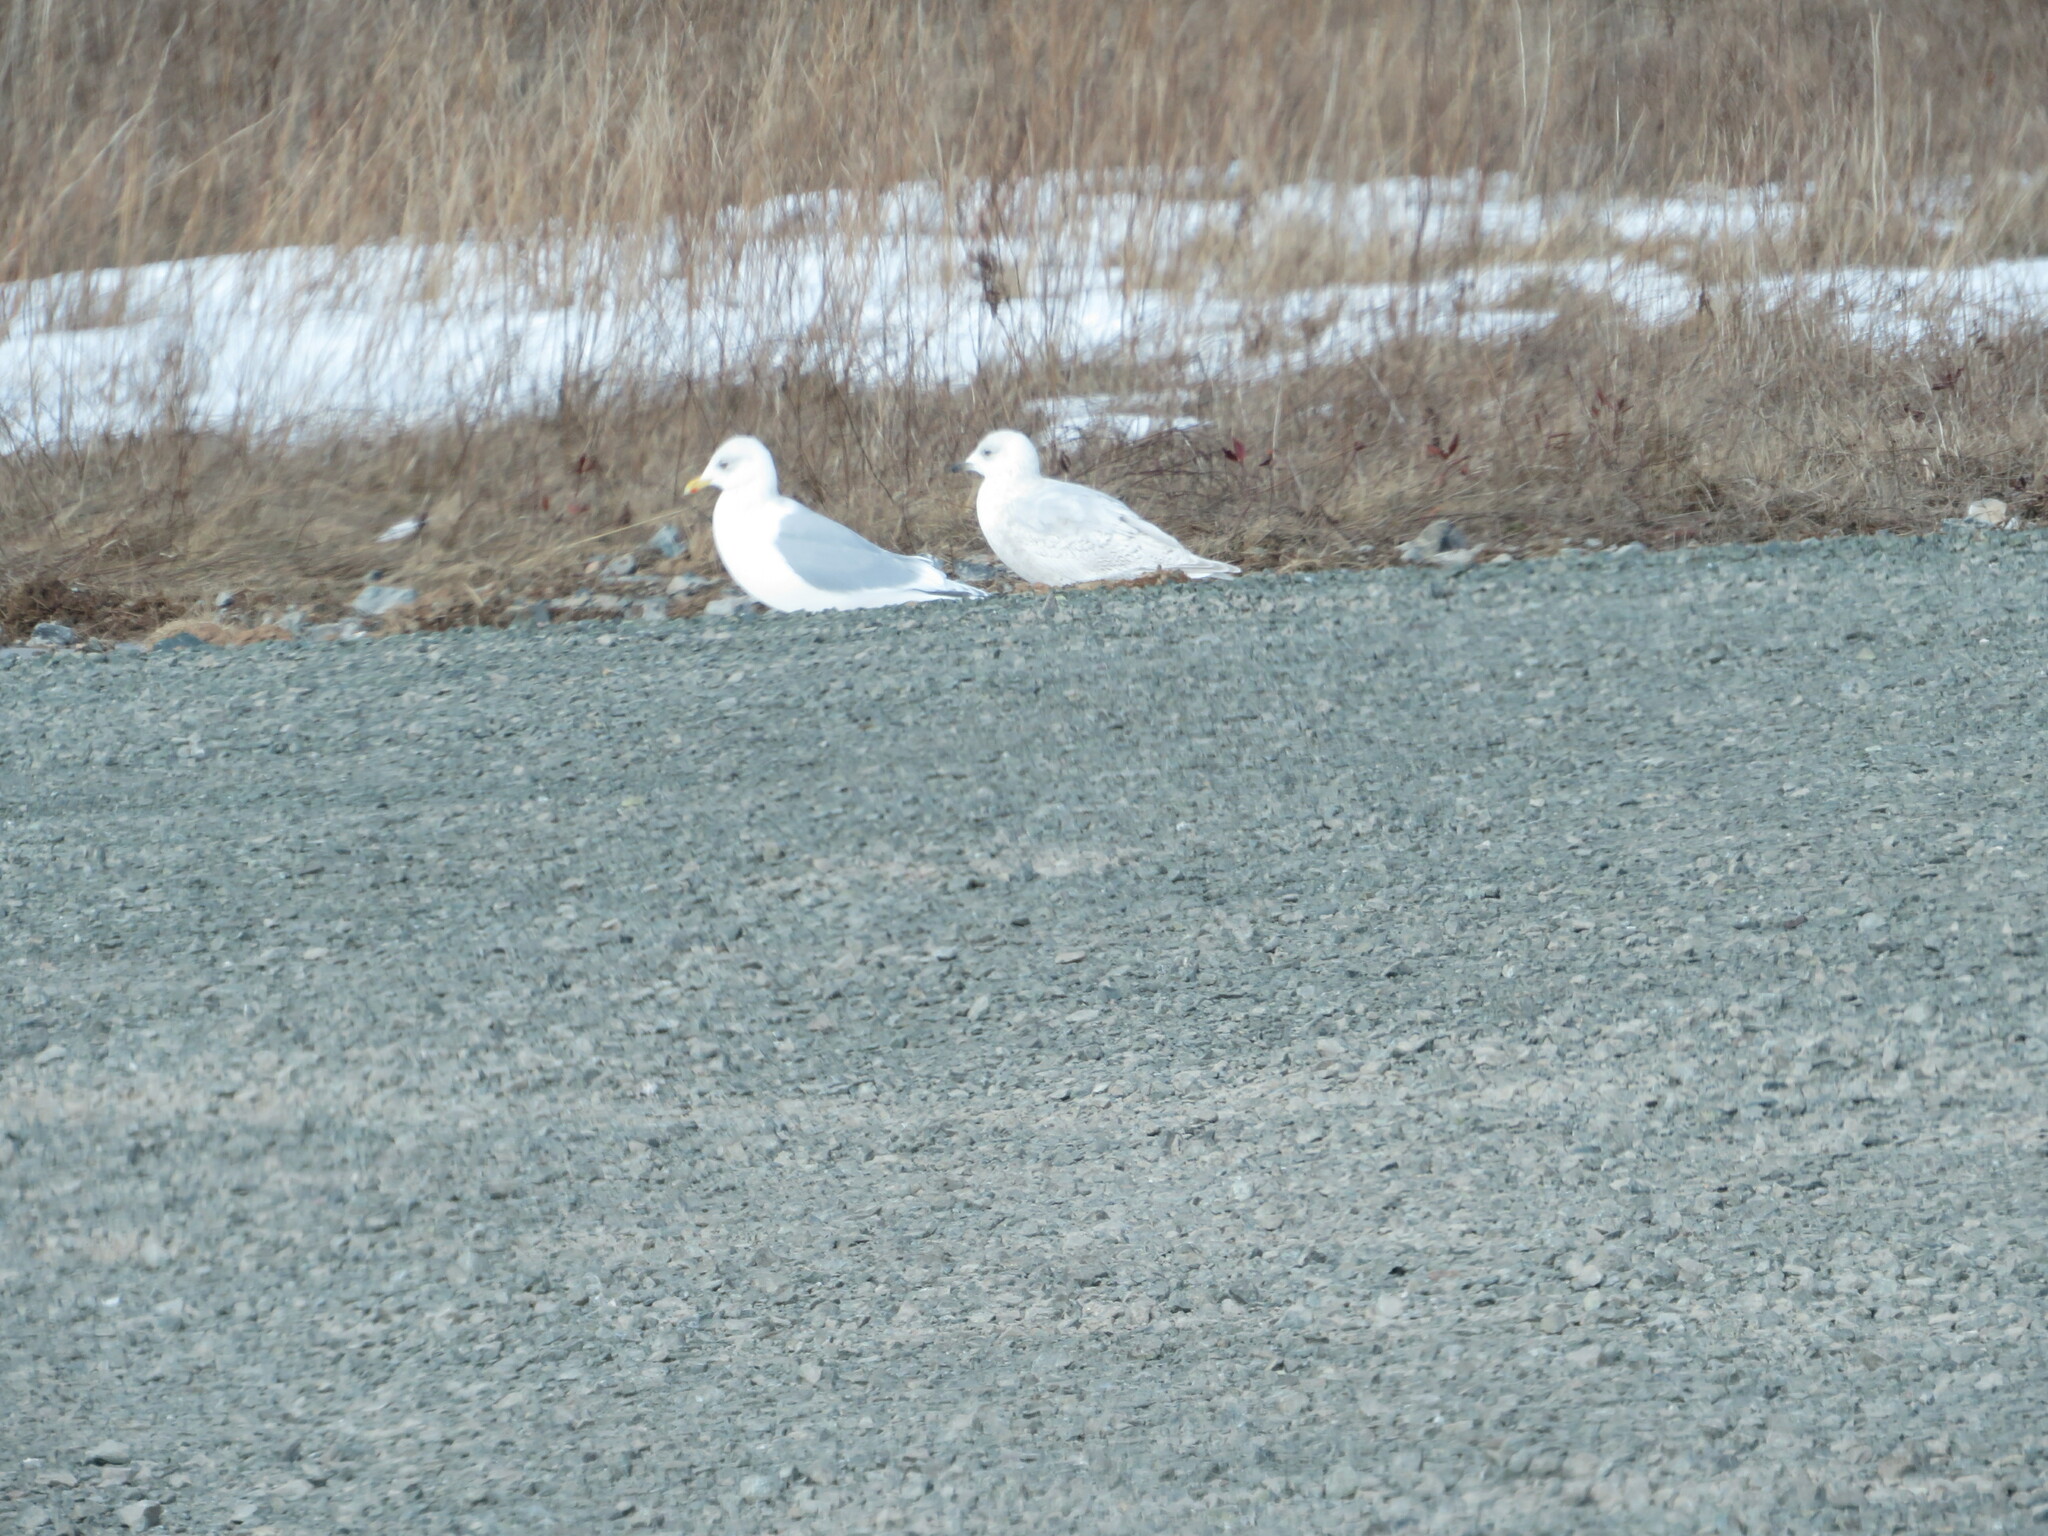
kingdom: Animalia
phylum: Chordata
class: Aves
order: Charadriiformes
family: Laridae
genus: Larus
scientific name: Larus glaucoides
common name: Iceland gull
